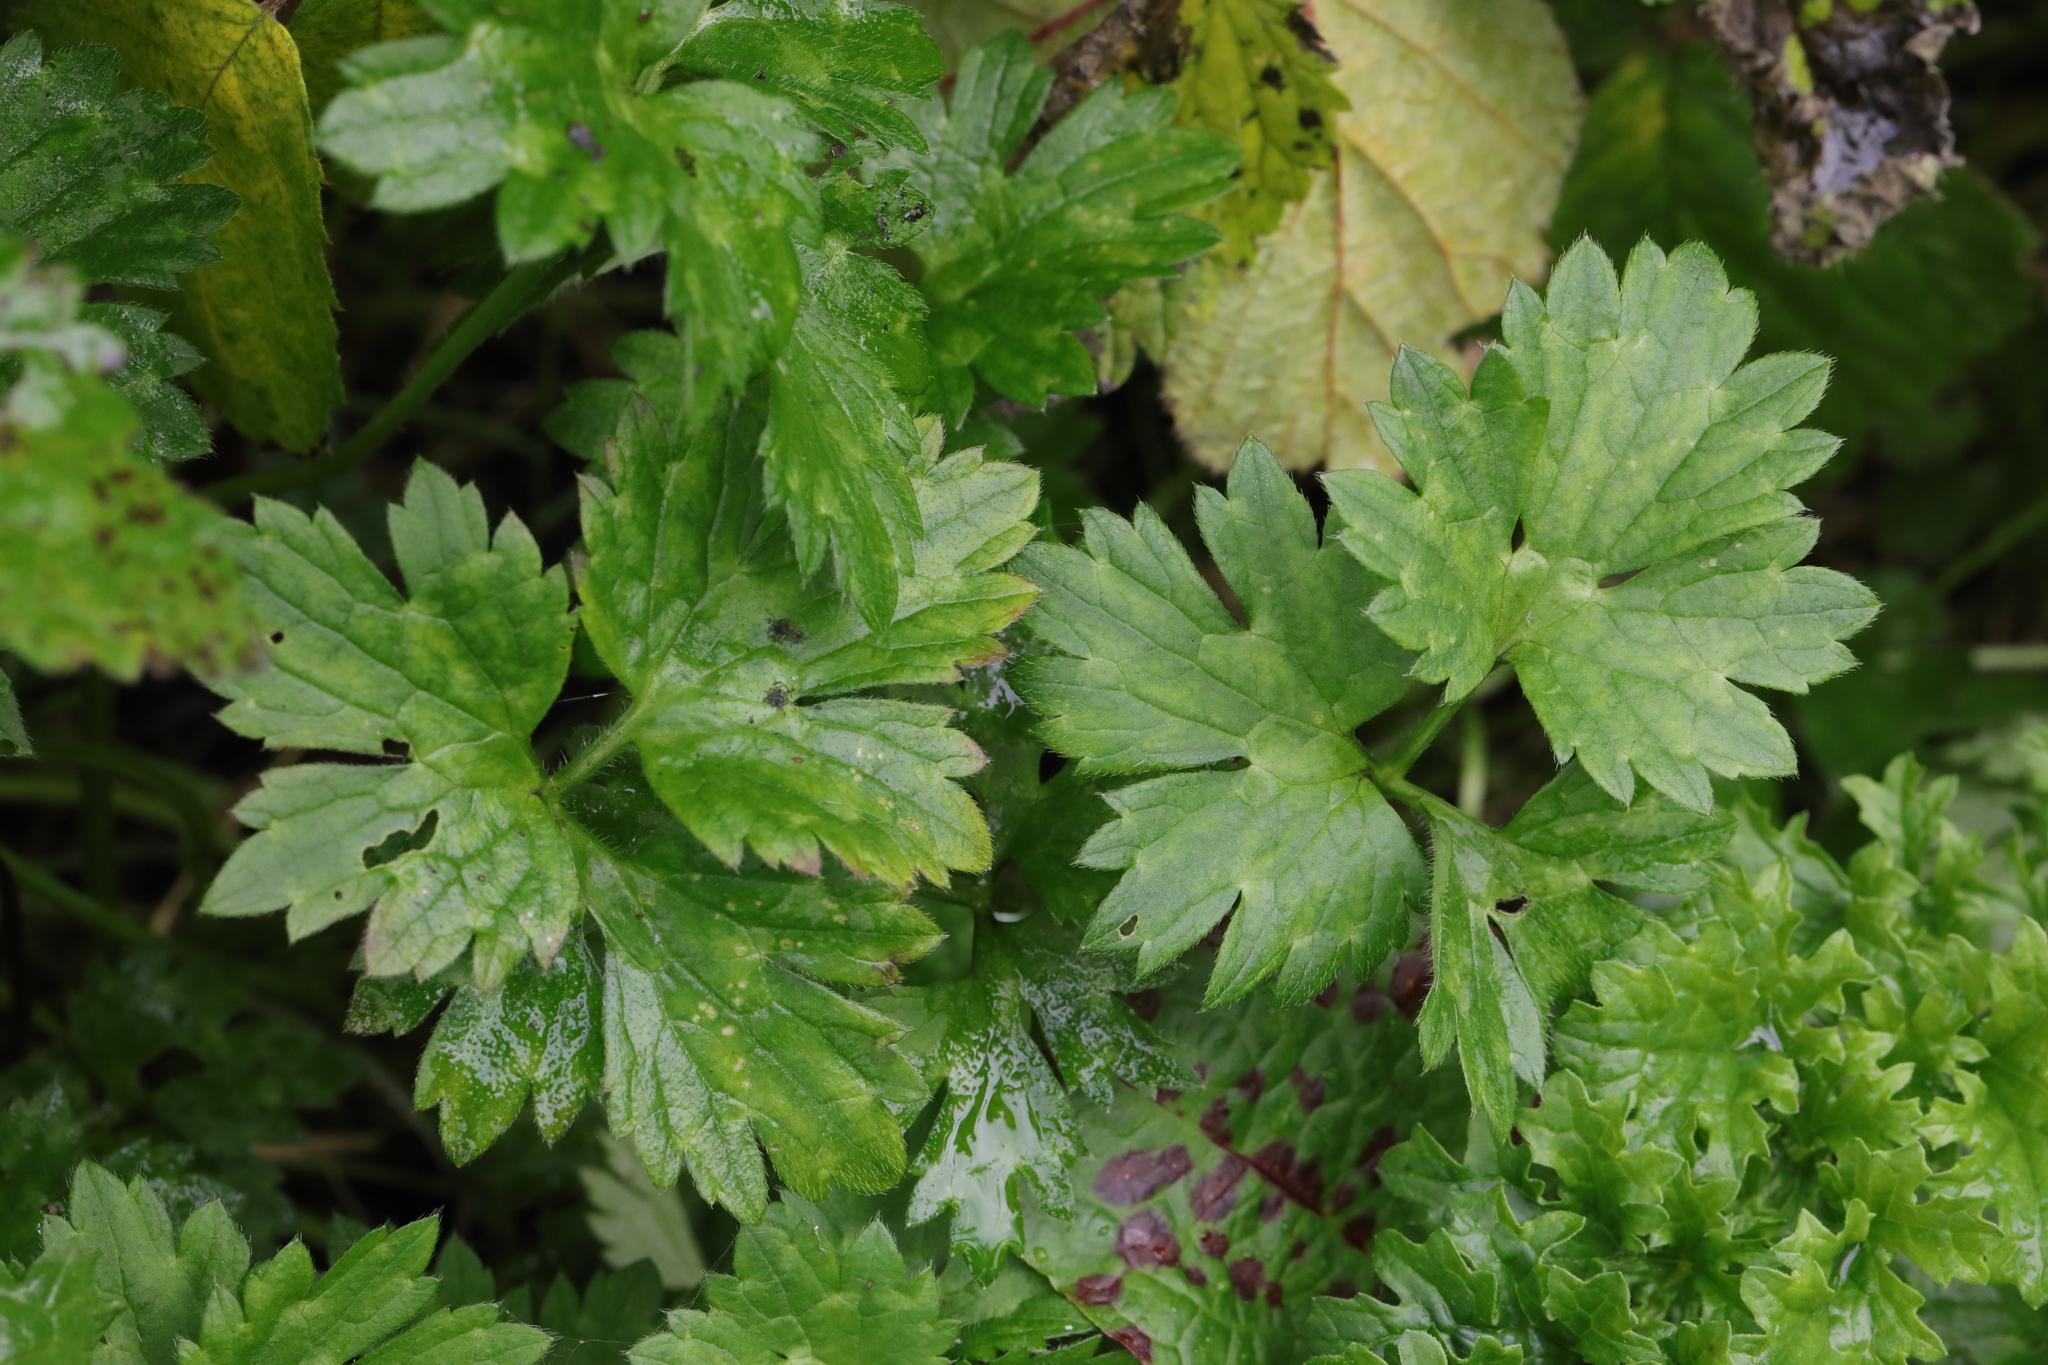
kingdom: Plantae
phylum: Tracheophyta
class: Magnoliopsida
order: Ranunculales
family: Ranunculaceae
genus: Ranunculus
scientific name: Ranunculus repens
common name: Creeping buttercup
